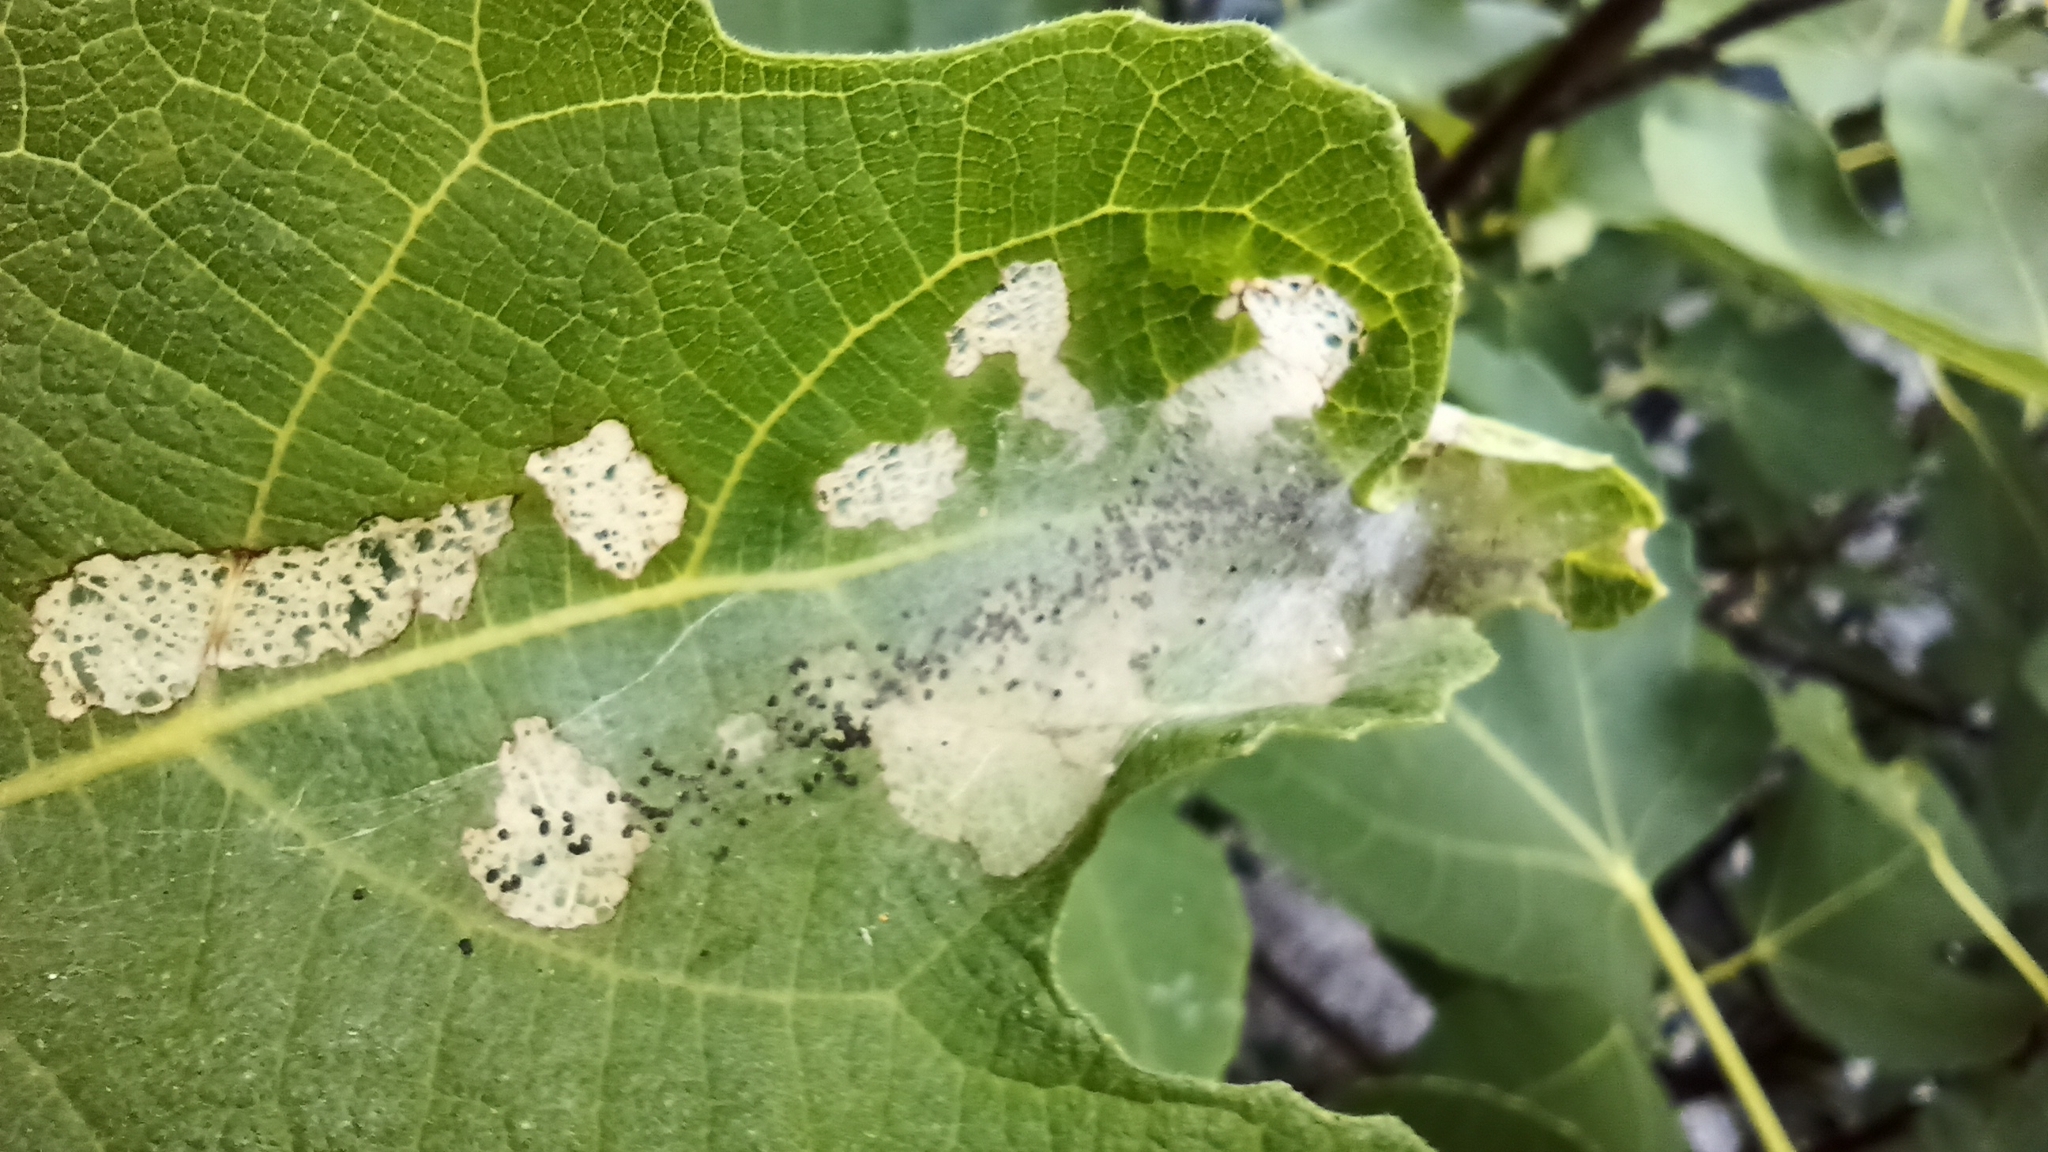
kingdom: Animalia
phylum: Arthropoda
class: Insecta
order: Lepidoptera
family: Choreutidae
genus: Anthophila
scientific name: Anthophila nemorana
